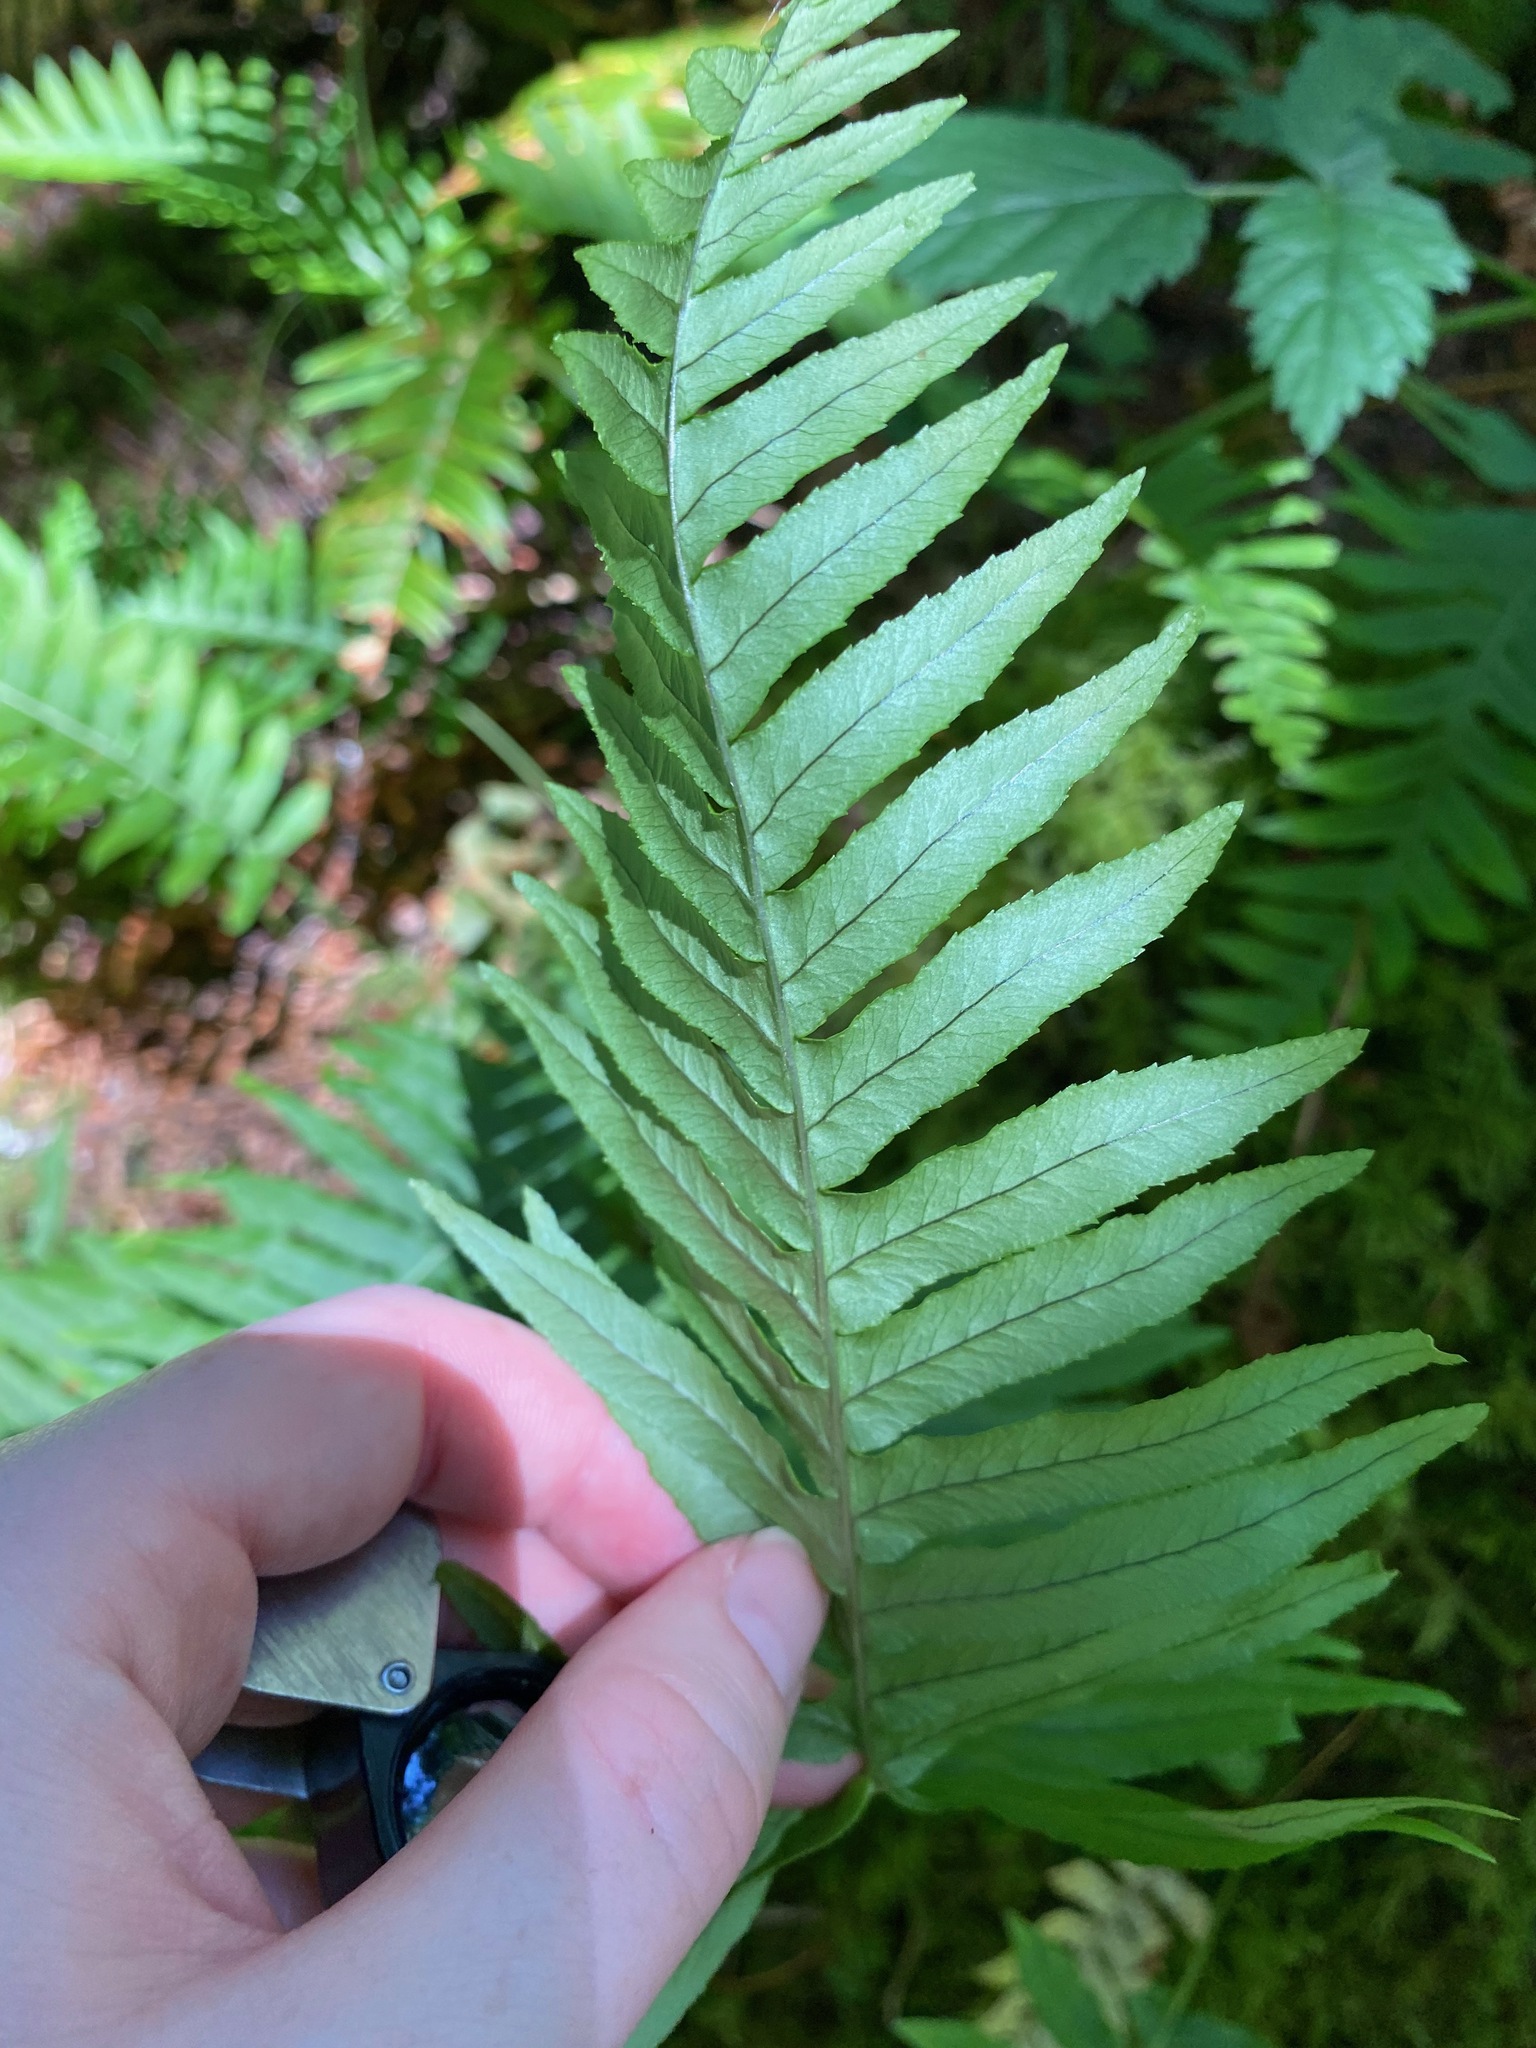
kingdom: Plantae
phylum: Tracheophyta
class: Polypodiopsida
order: Polypodiales
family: Polypodiaceae
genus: Polypodium
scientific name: Polypodium glycyrrhiza
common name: Licorice fern
